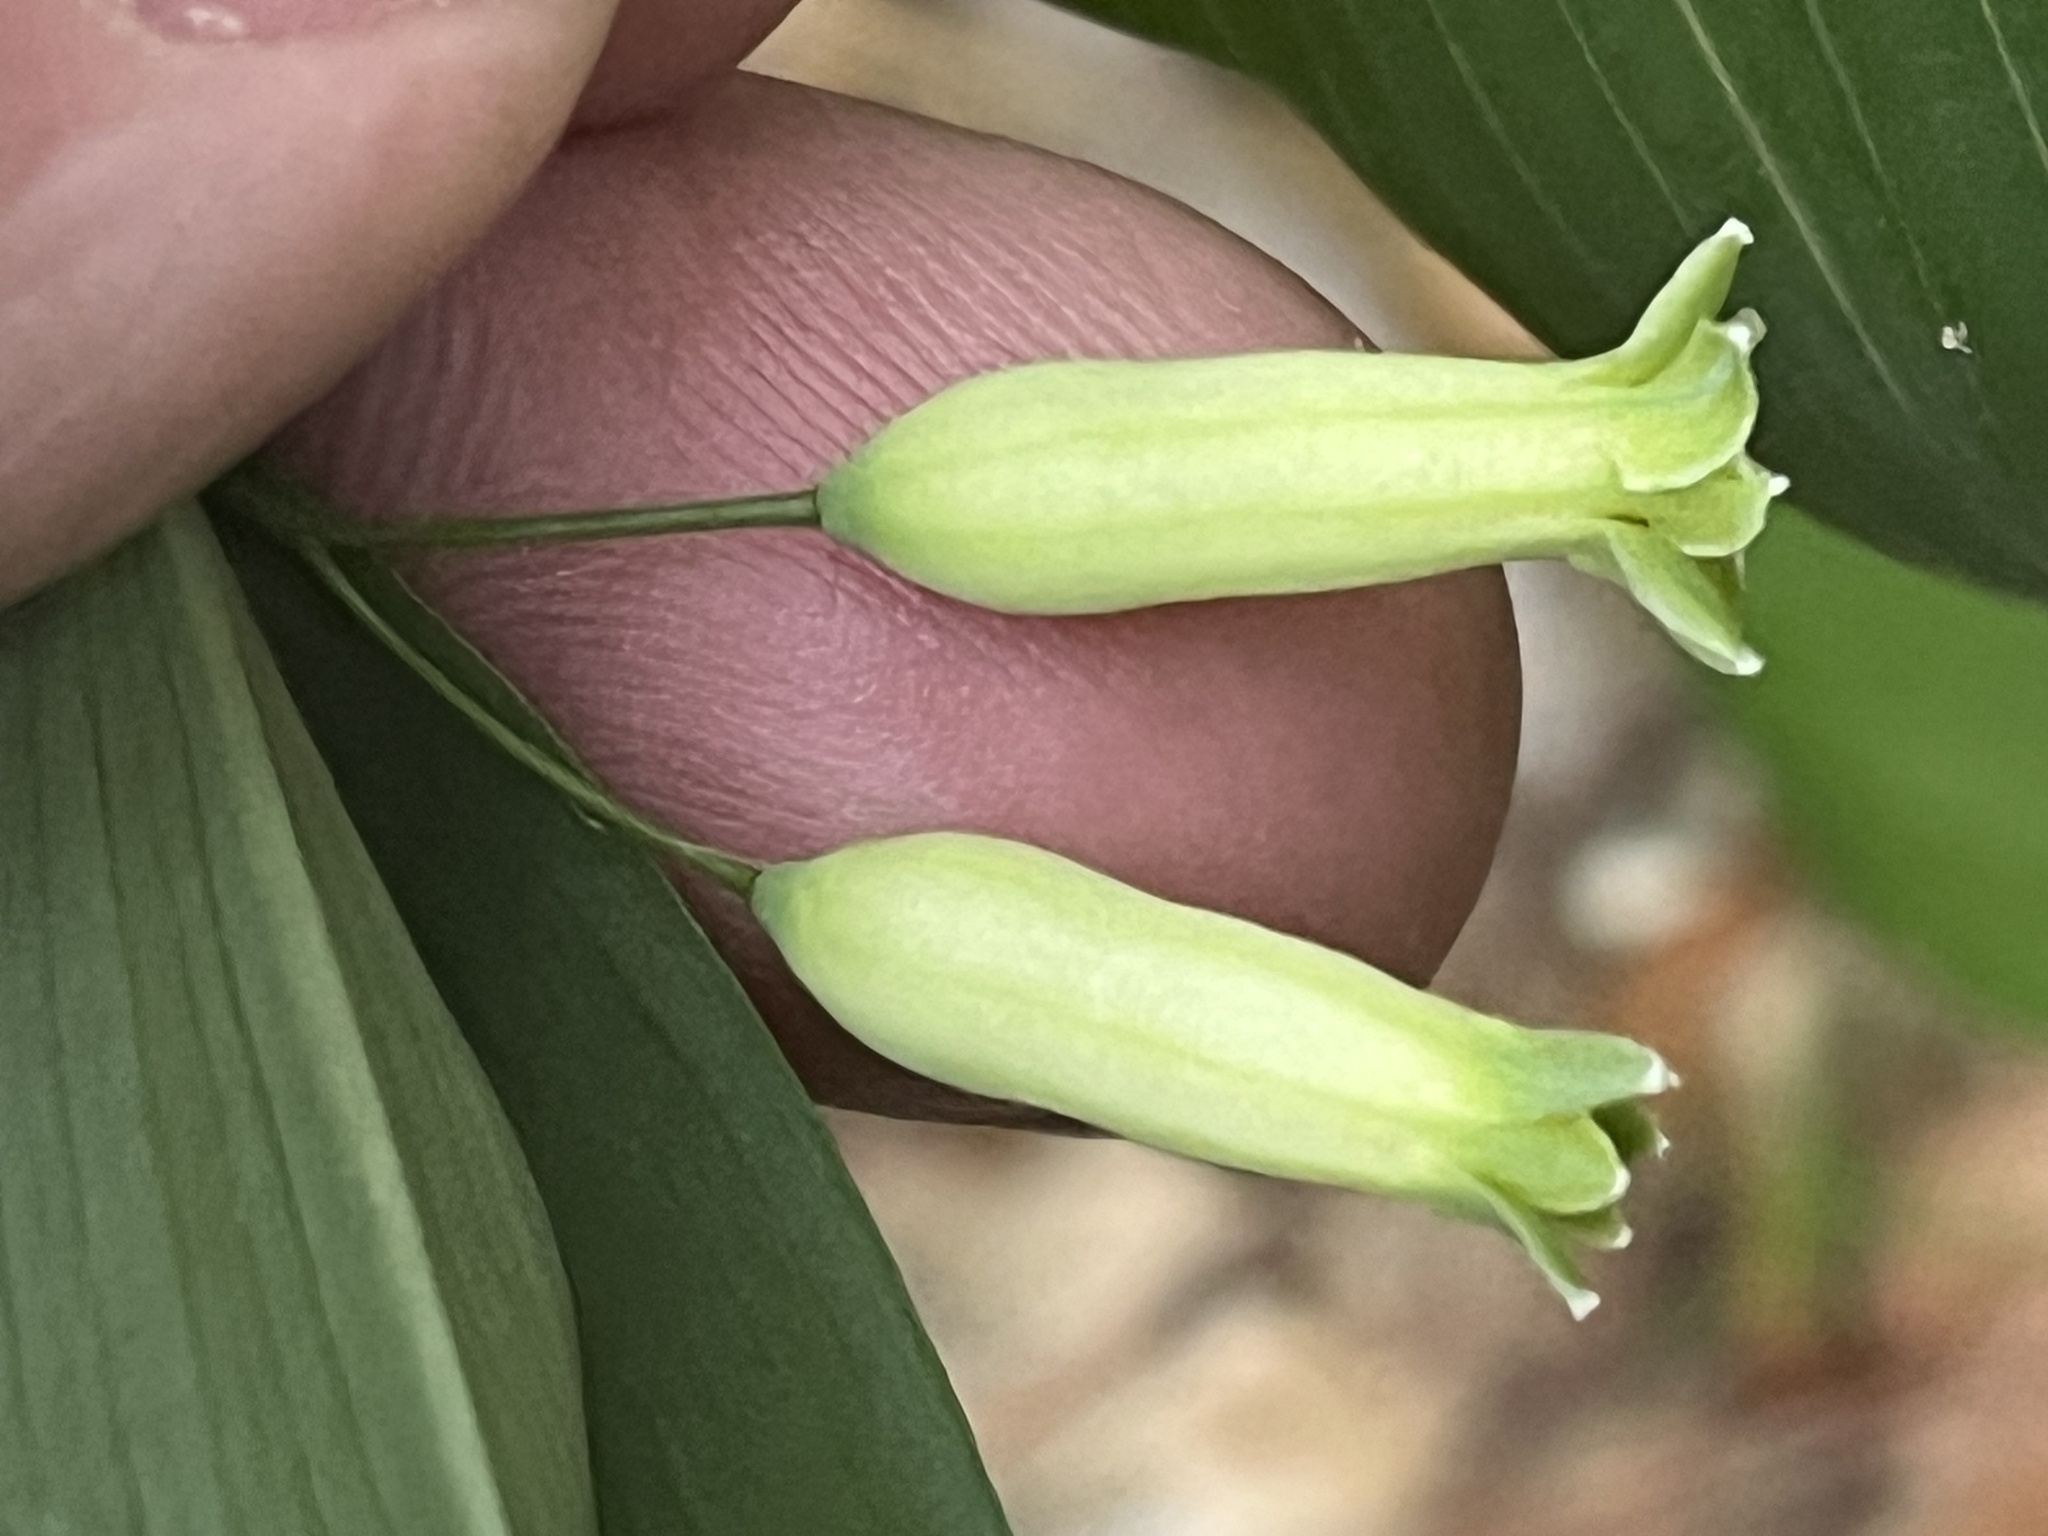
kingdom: Plantae
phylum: Tracheophyta
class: Liliopsida
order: Asparagales
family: Asparagaceae
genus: Polygonatum
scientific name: Polygonatum biflorum
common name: American solomon's-seal
